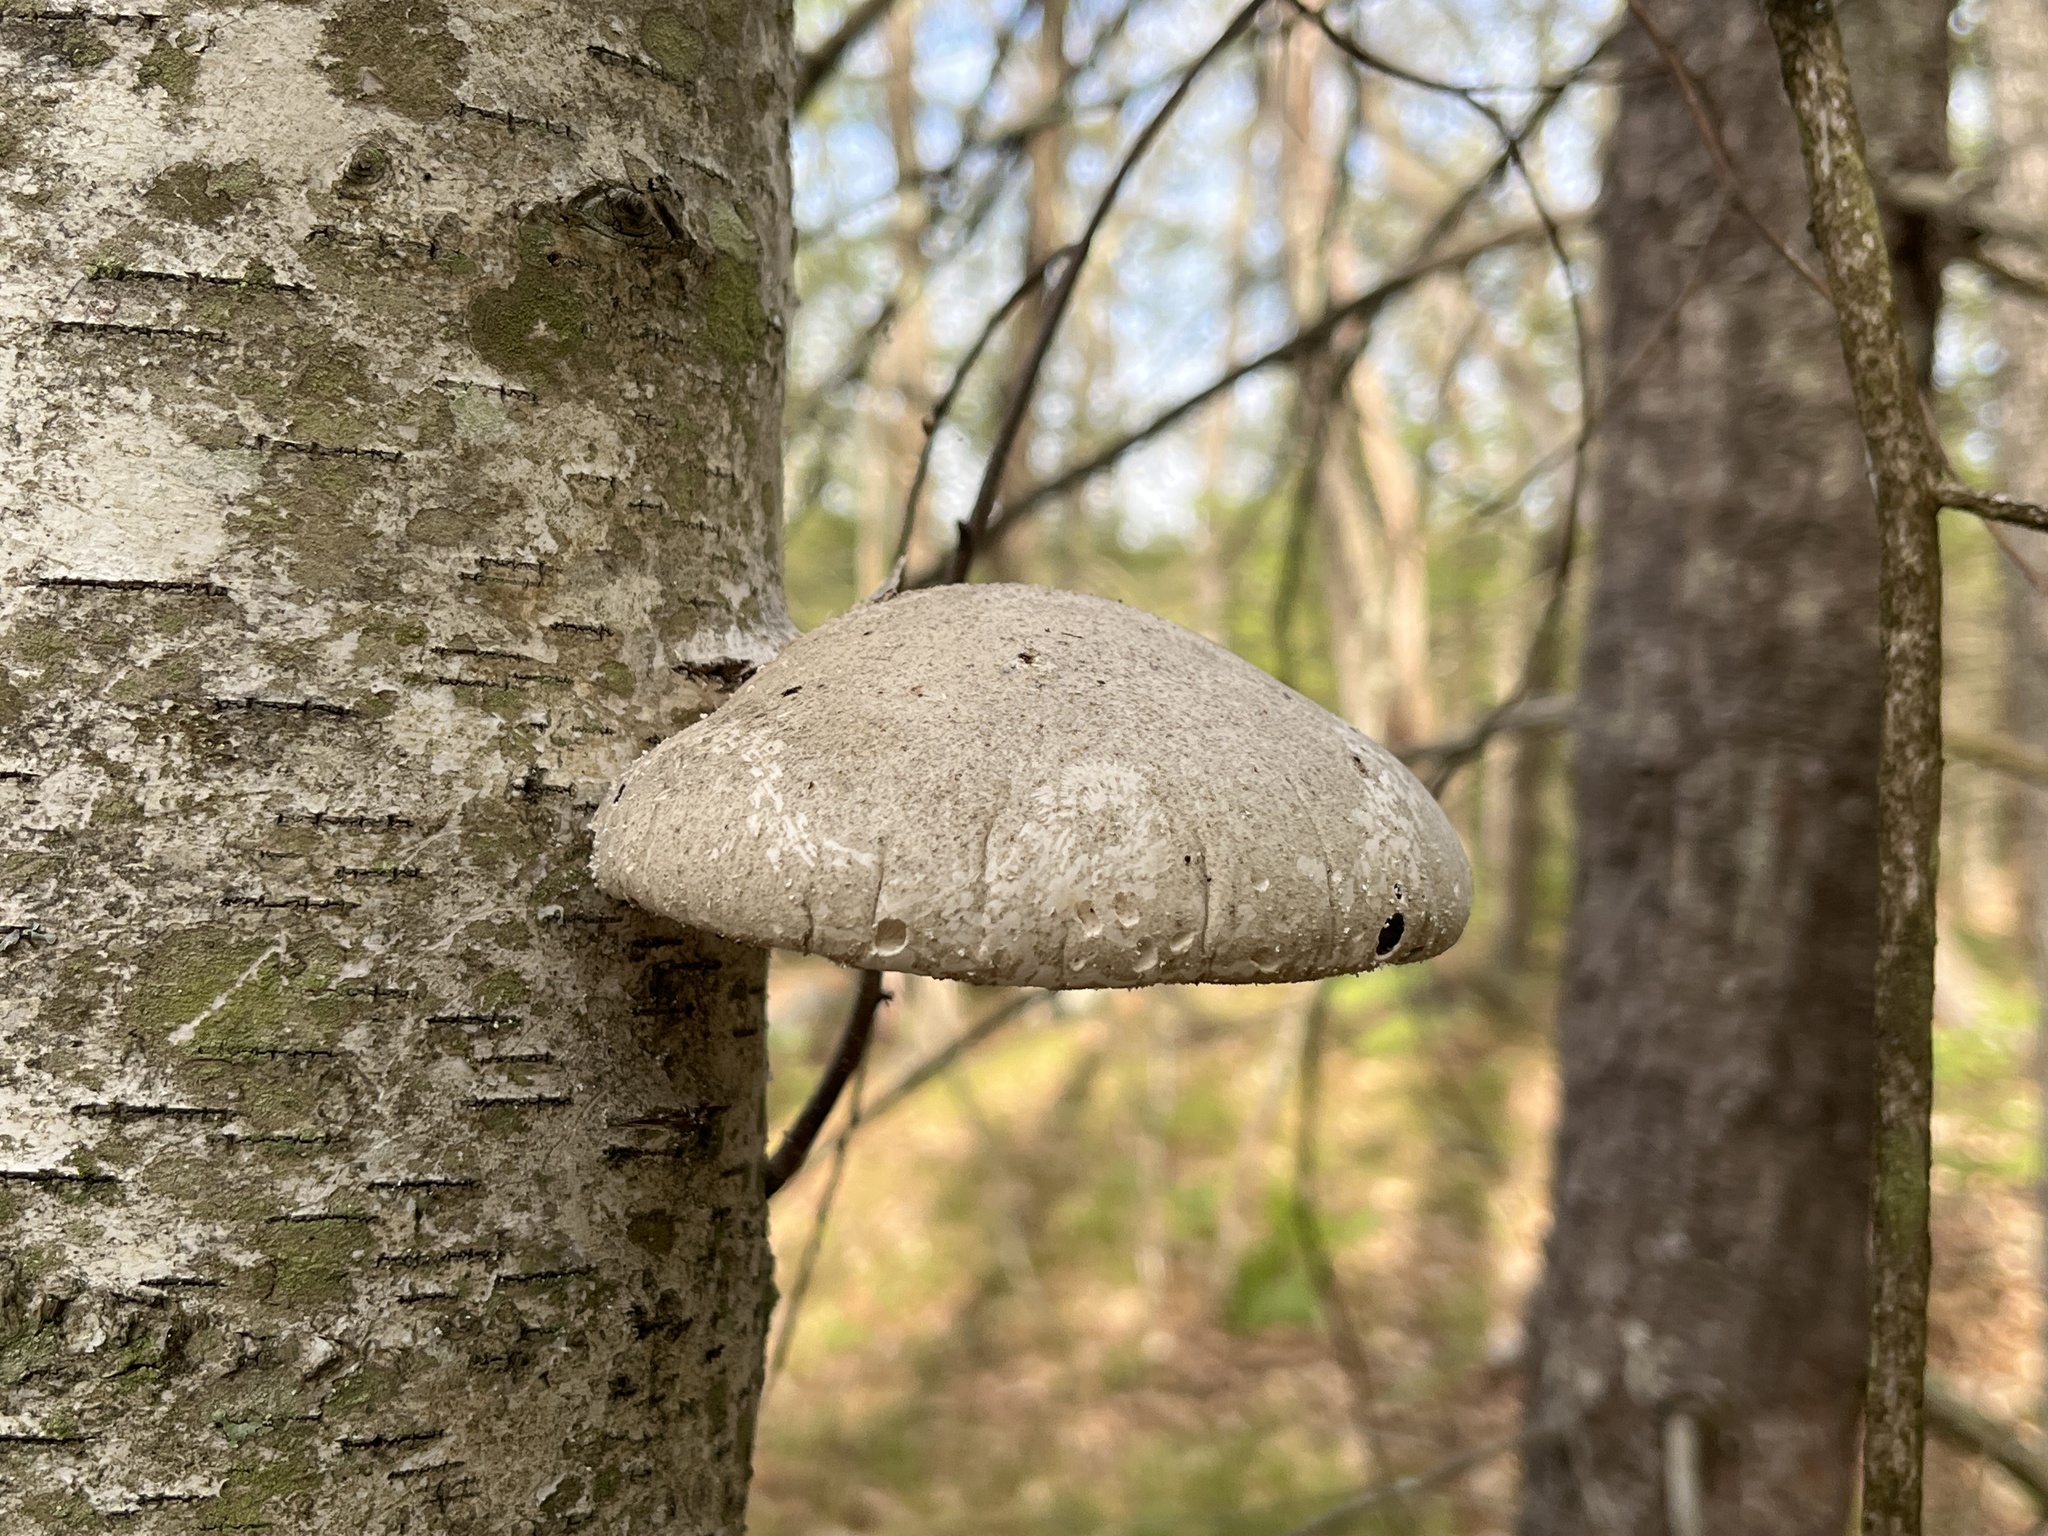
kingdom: Fungi
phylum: Basidiomycota
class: Agaricomycetes
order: Polyporales
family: Fomitopsidaceae
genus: Fomitopsis
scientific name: Fomitopsis betulina
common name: Birch polypore
